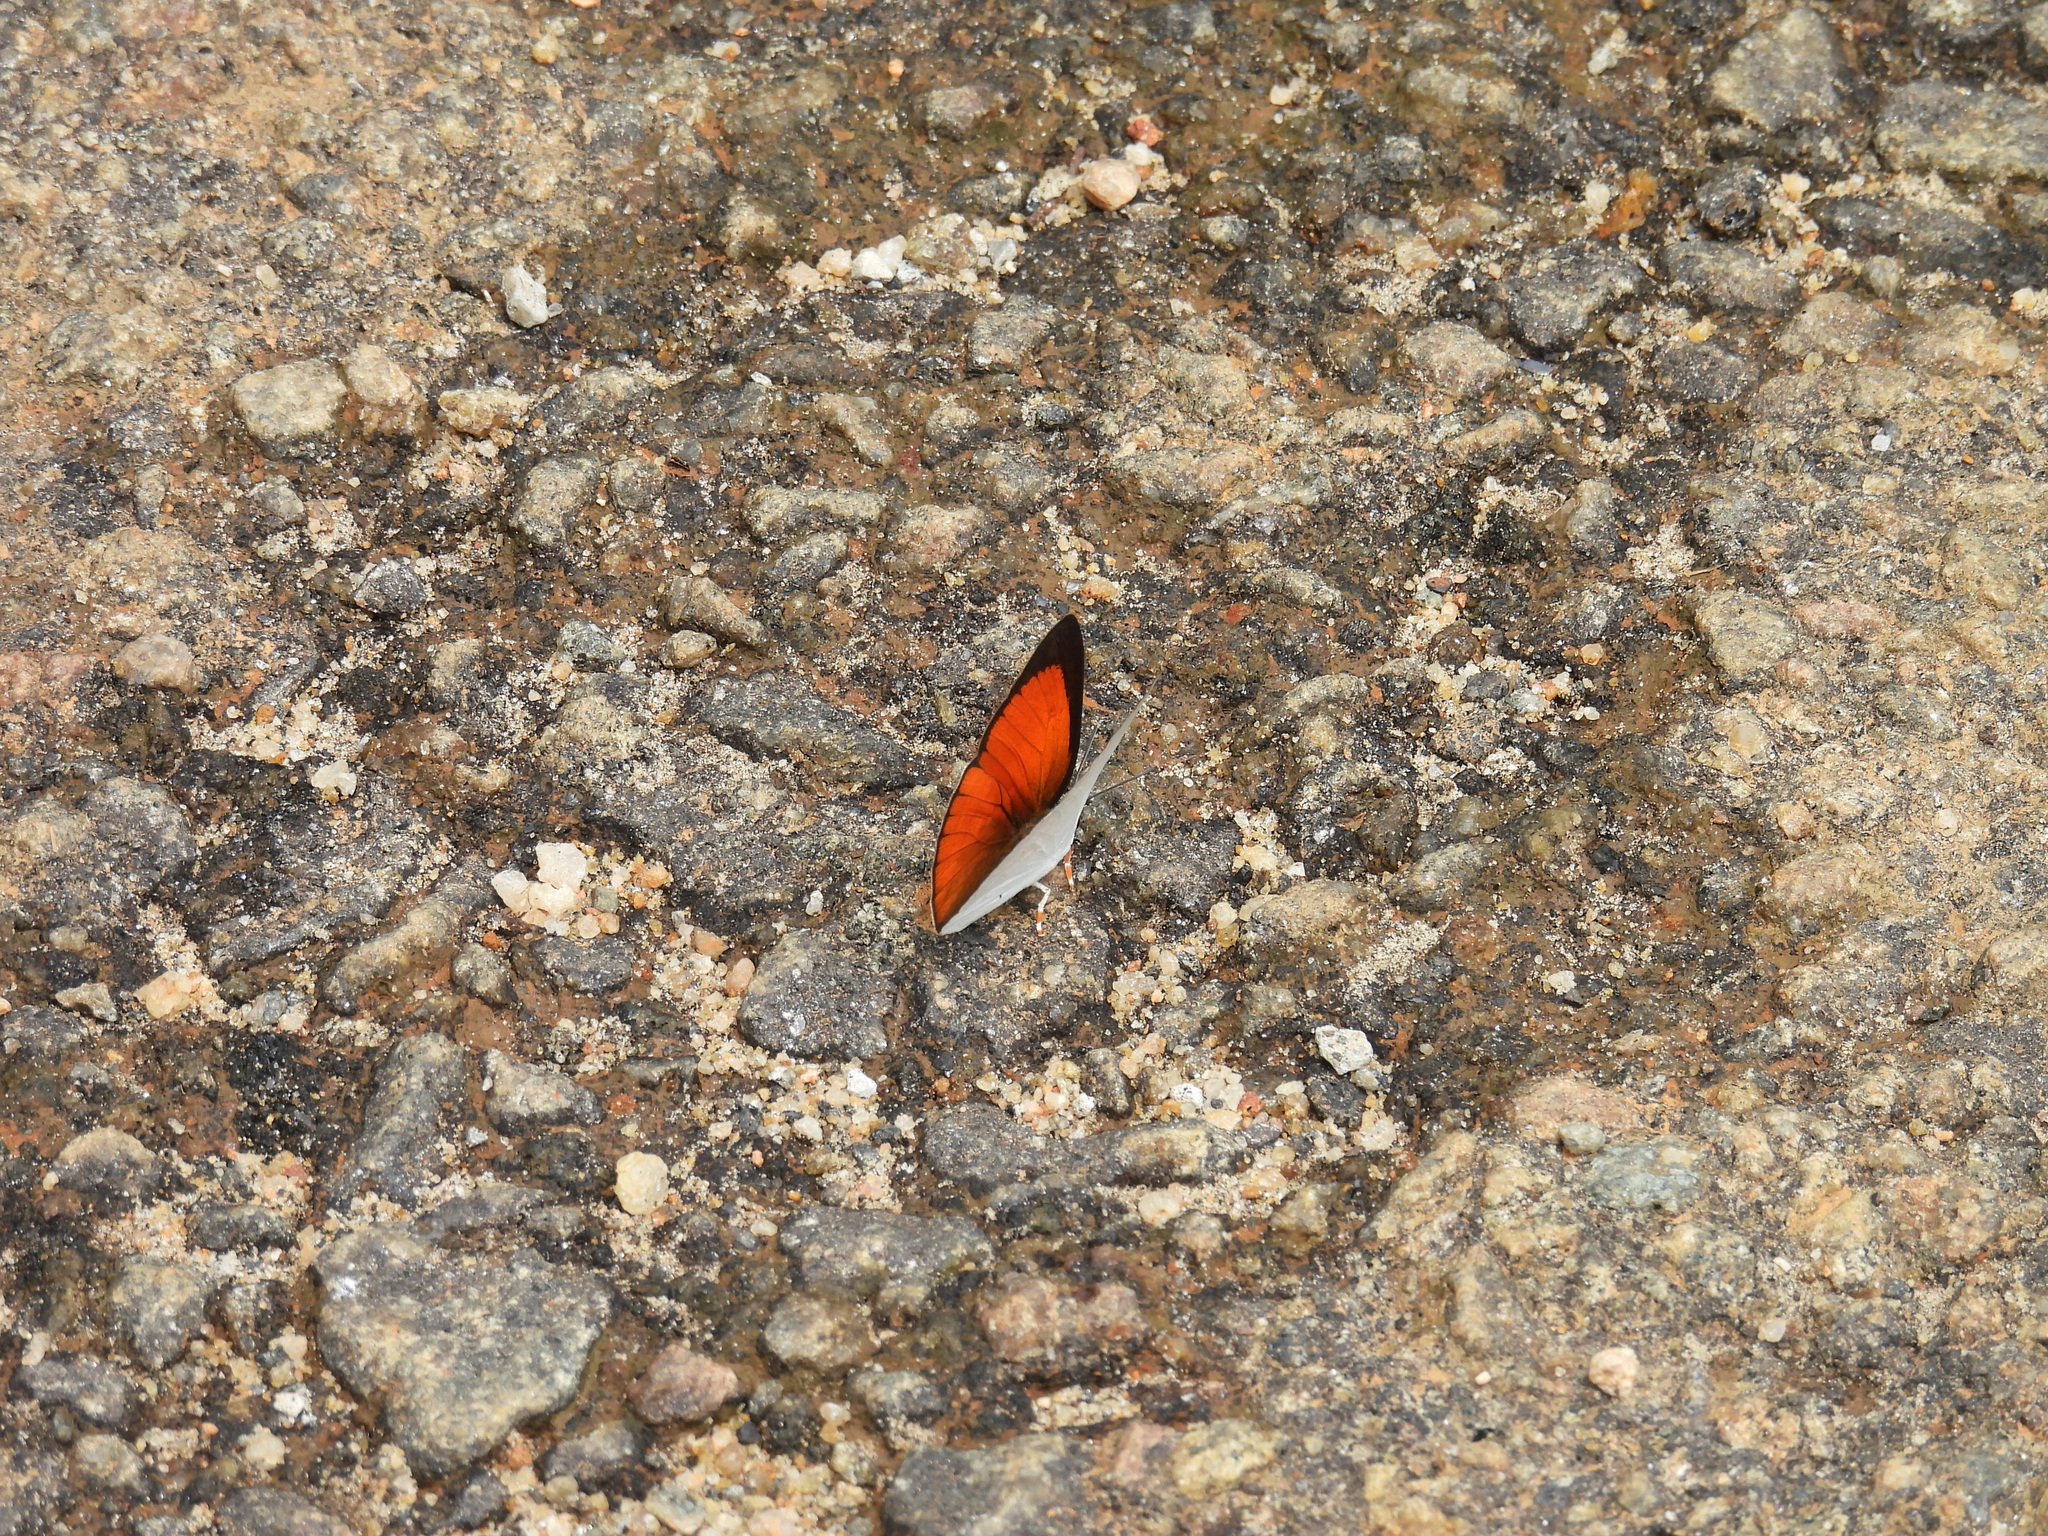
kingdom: Animalia
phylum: Arthropoda
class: Insecta
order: Lepidoptera
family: Lycaenidae
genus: Curetis
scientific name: Curetis thetis
